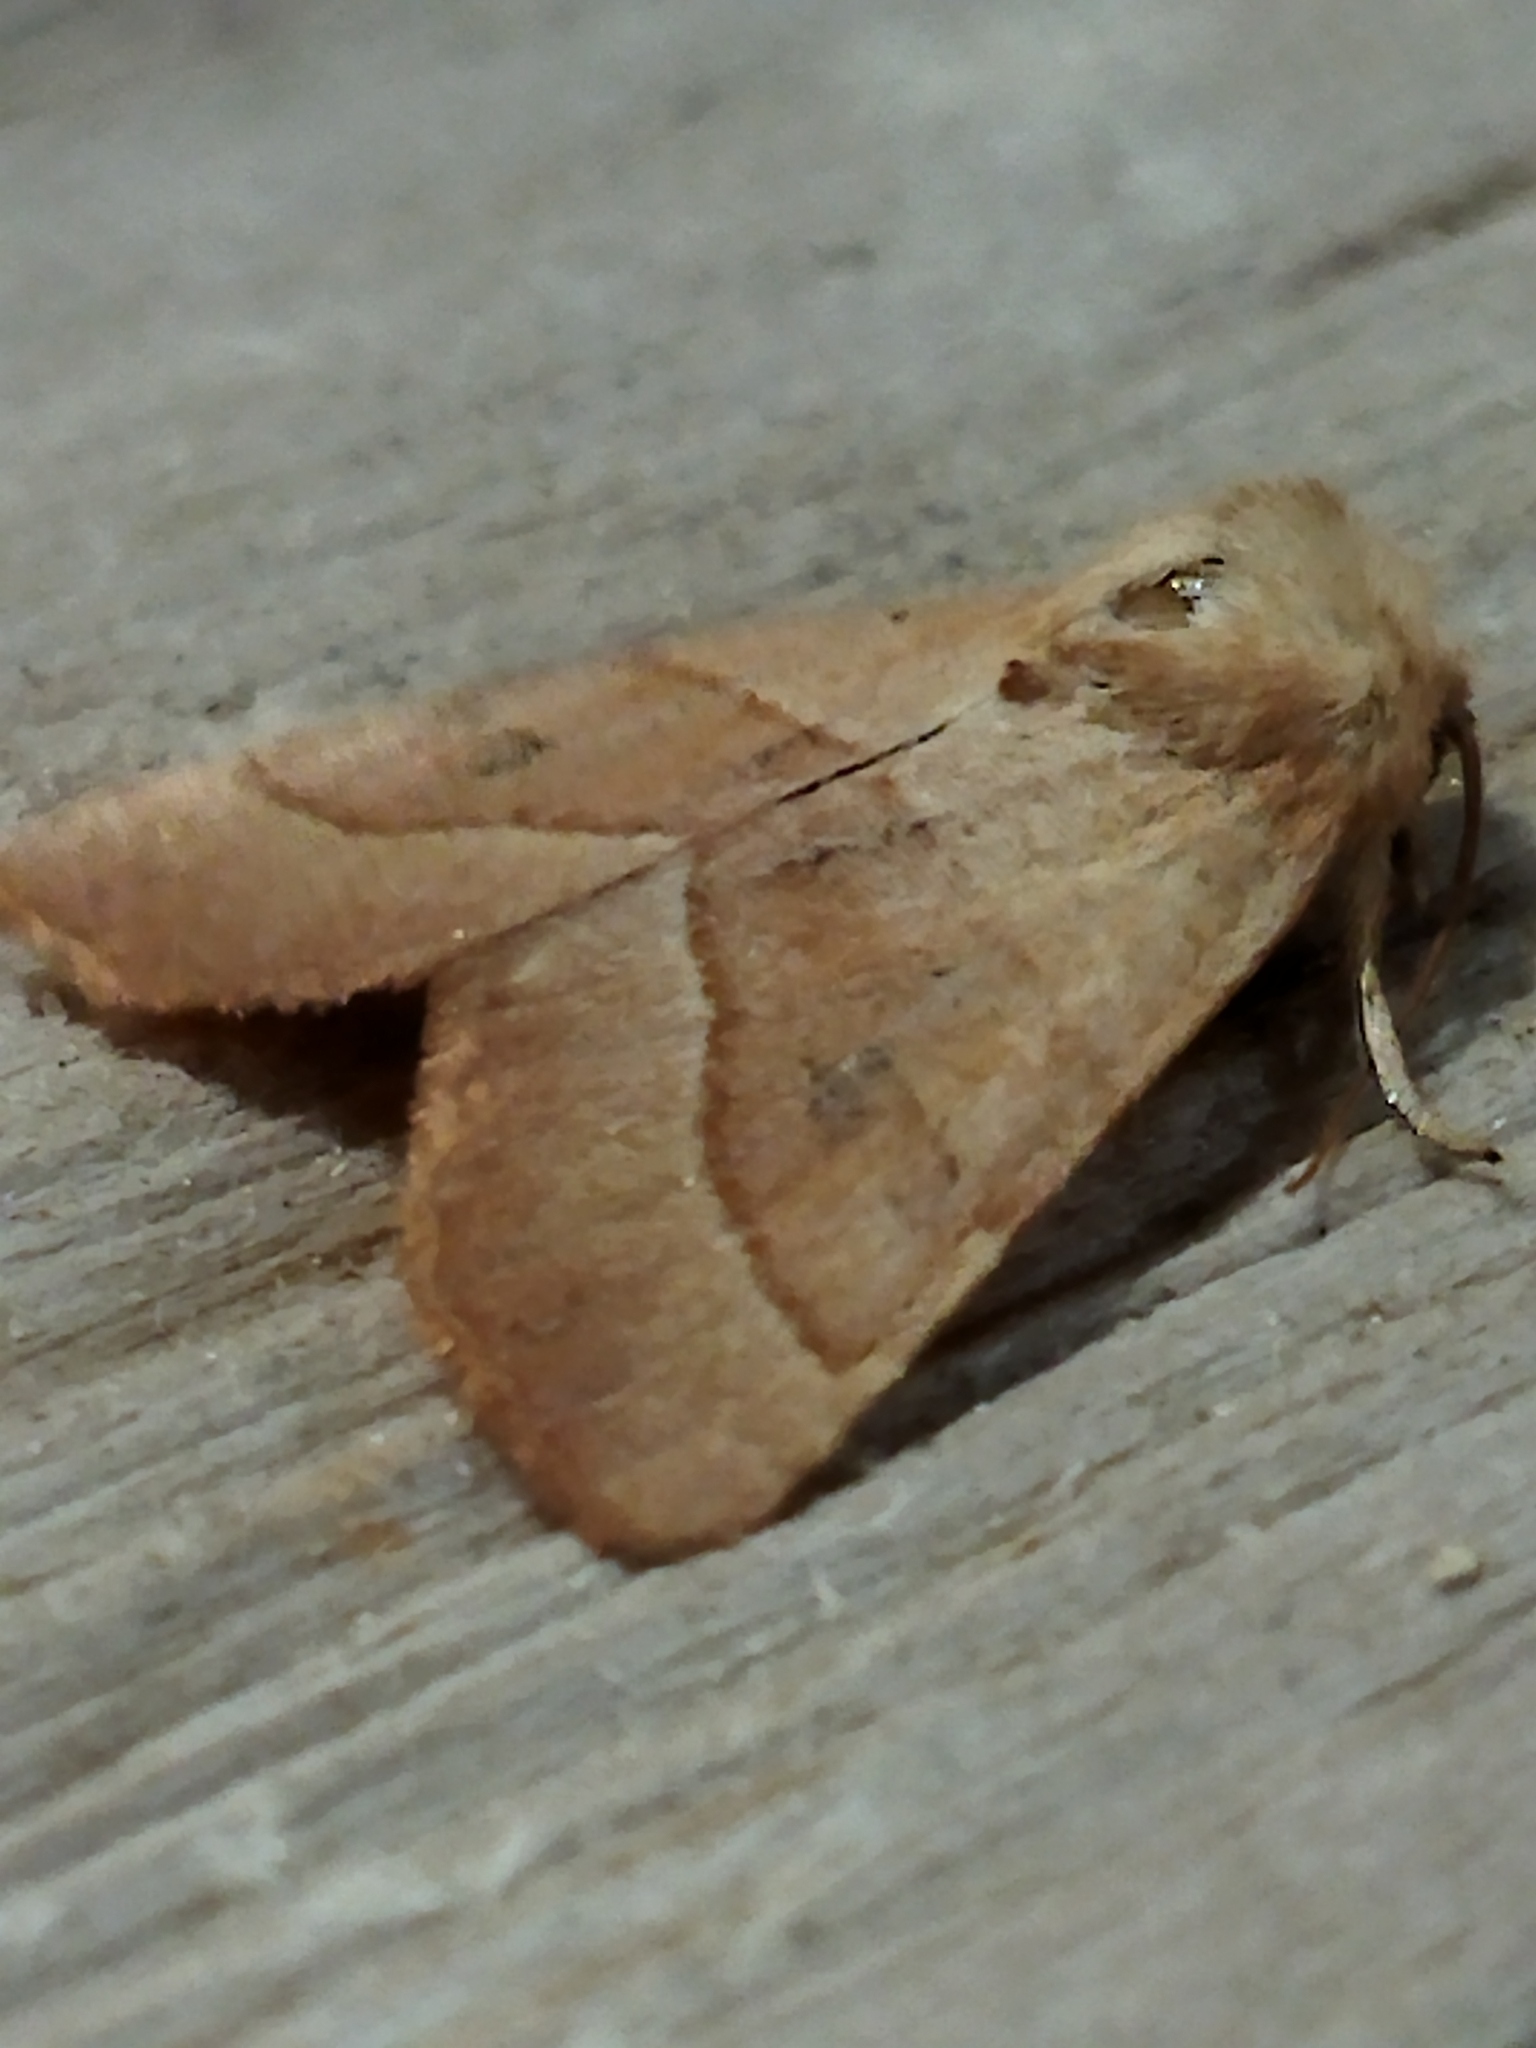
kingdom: Animalia
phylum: Arthropoda
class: Insecta
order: Lepidoptera
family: Noctuidae
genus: Atethmia
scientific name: Atethmia centrago
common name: Centre-barred sallow
